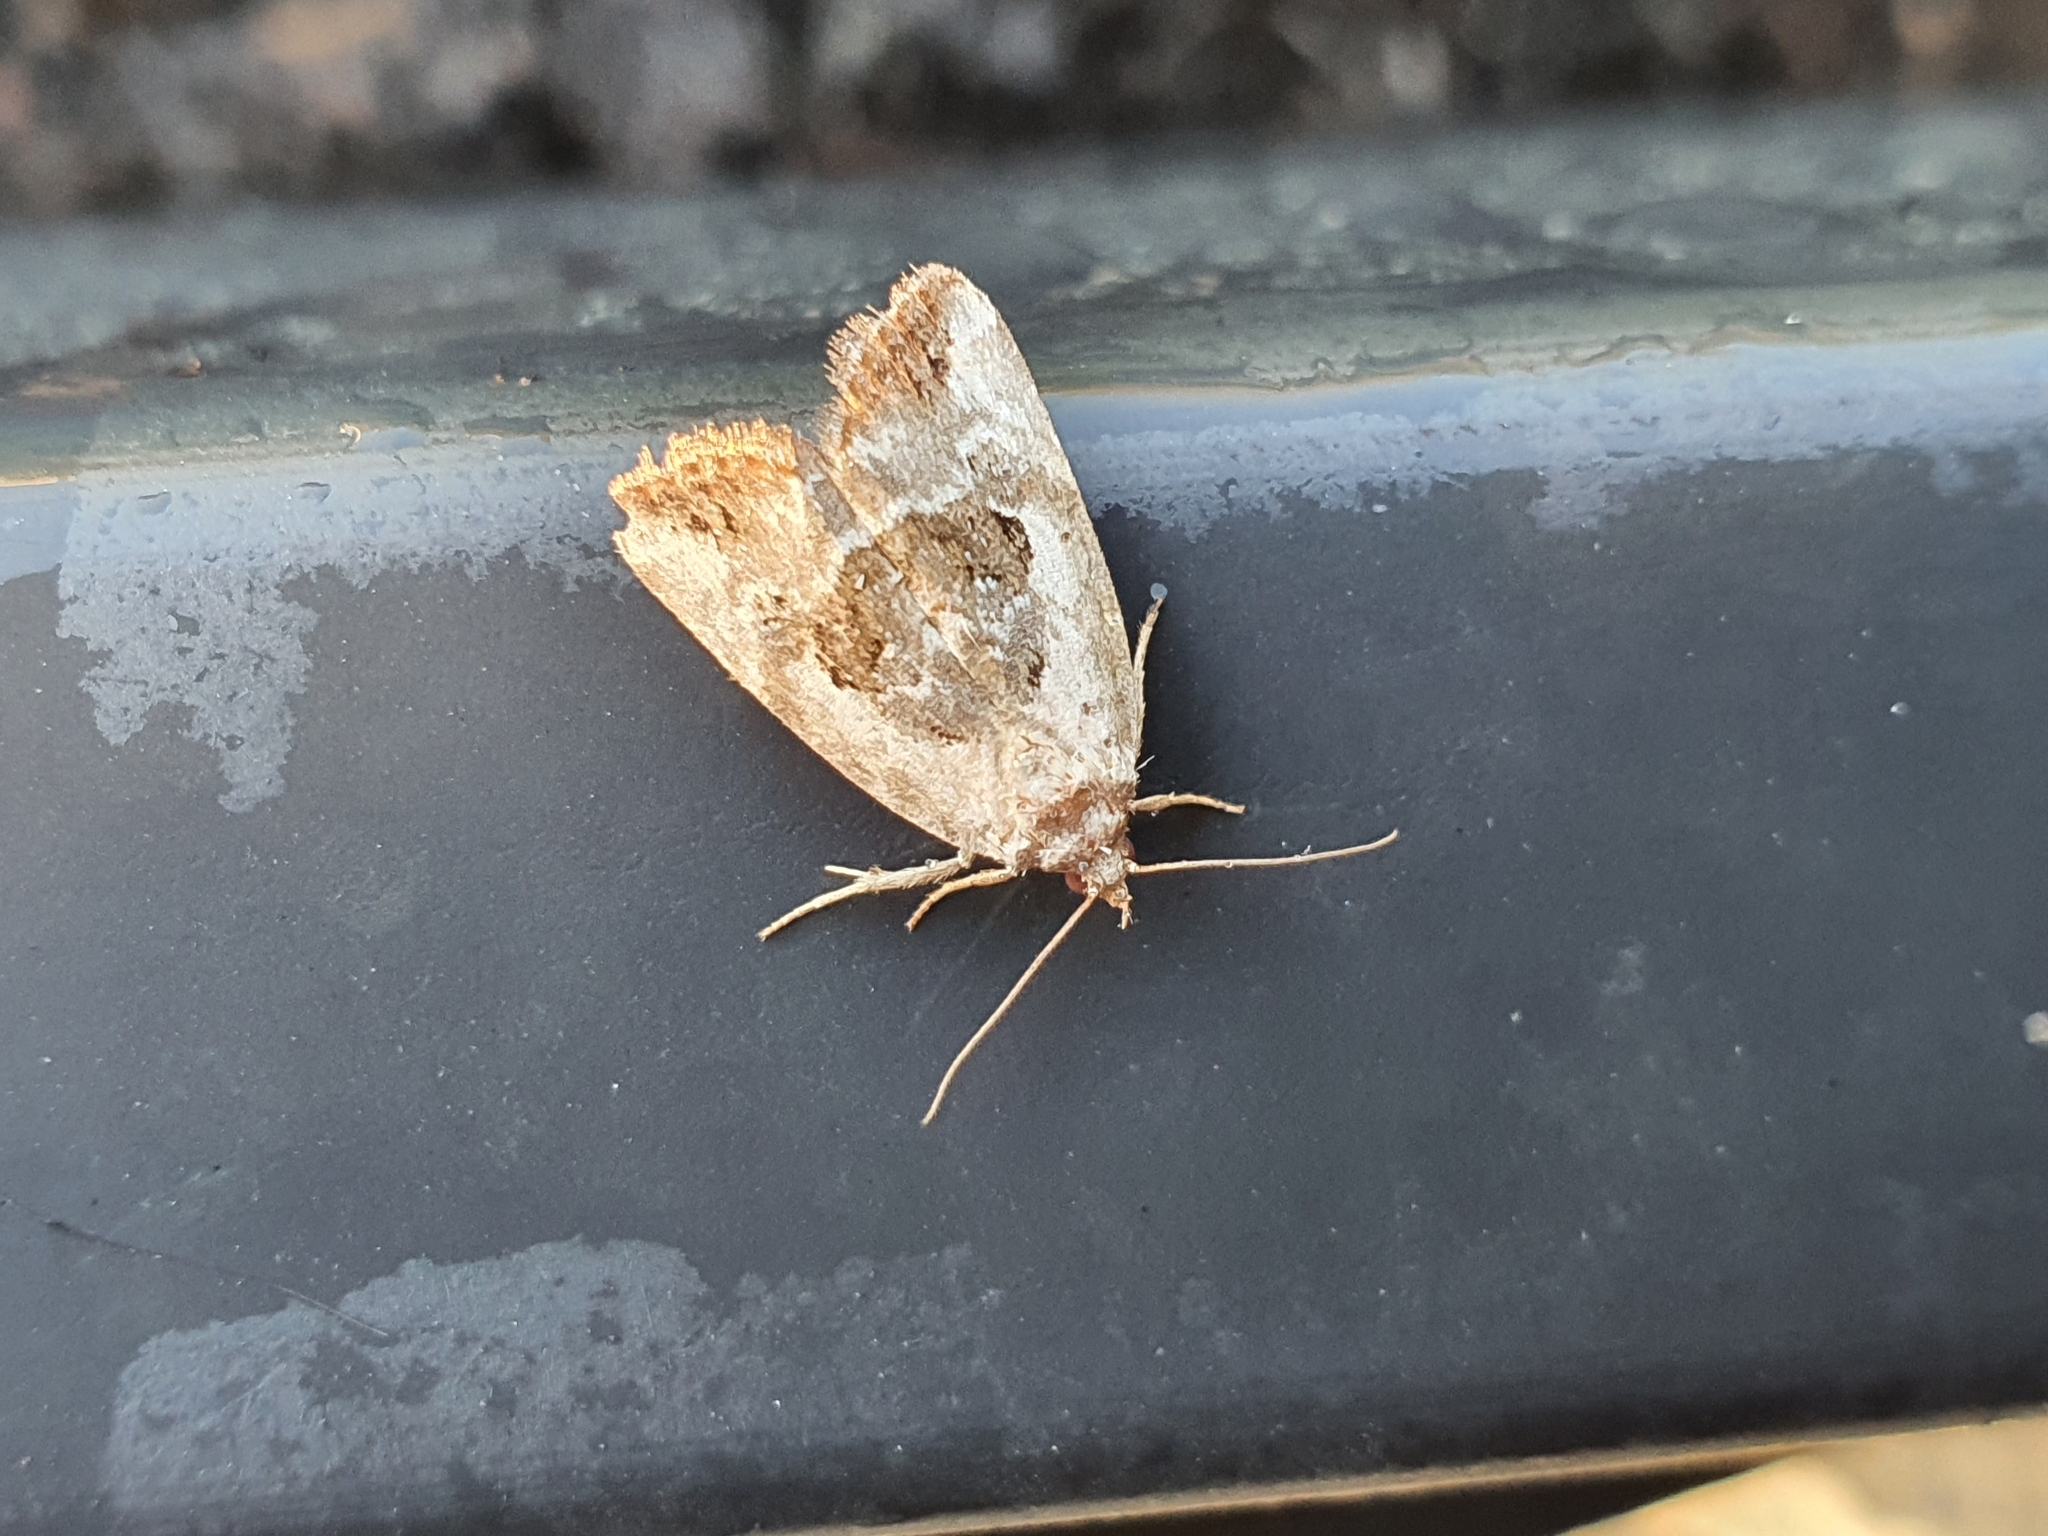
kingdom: Animalia
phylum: Arthropoda
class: Insecta
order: Lepidoptera
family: Noctuidae
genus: Elaphria
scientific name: Elaphria venustula
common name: Rosy marbled
